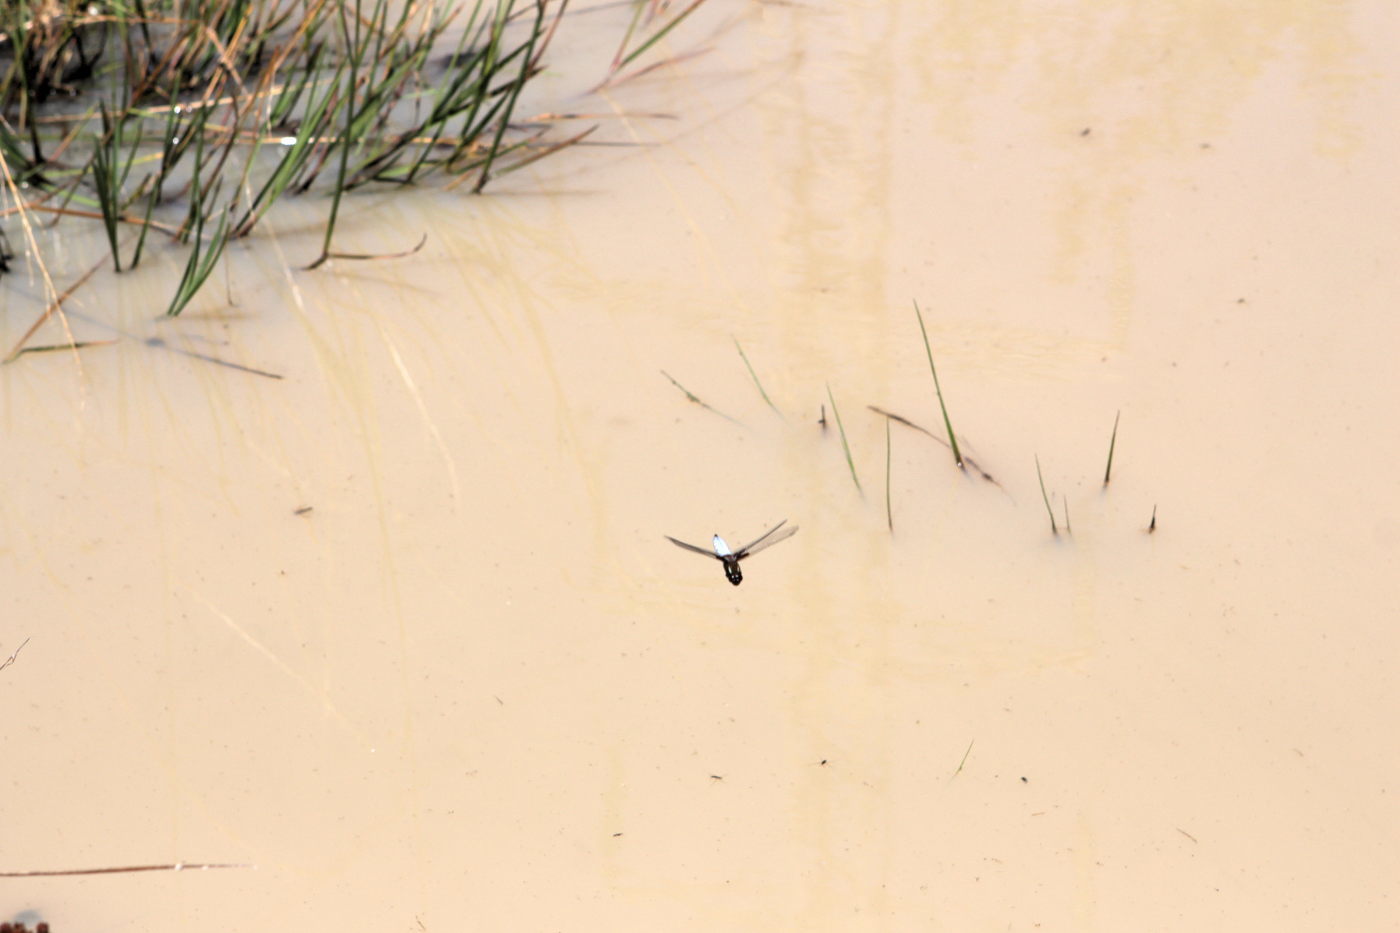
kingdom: Animalia
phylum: Arthropoda
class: Insecta
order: Odonata
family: Libellulidae
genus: Libellula
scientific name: Libellula depressa
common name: Broad-bodied chaser
